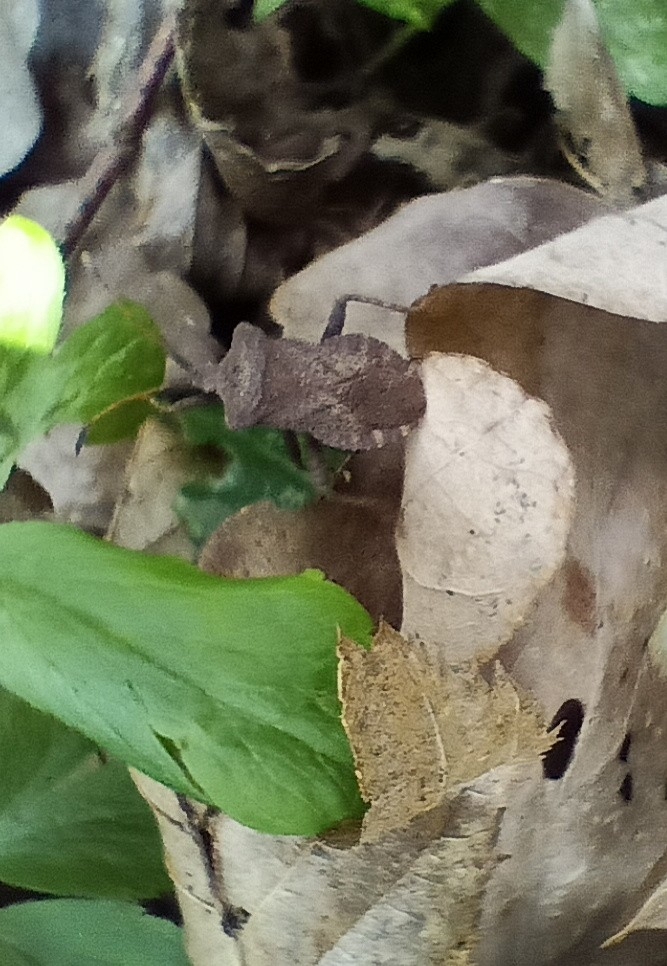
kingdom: Animalia
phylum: Arthropoda
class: Insecta
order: Hemiptera
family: Coreidae
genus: Coreus
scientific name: Coreus marginatus
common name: Dock bug
